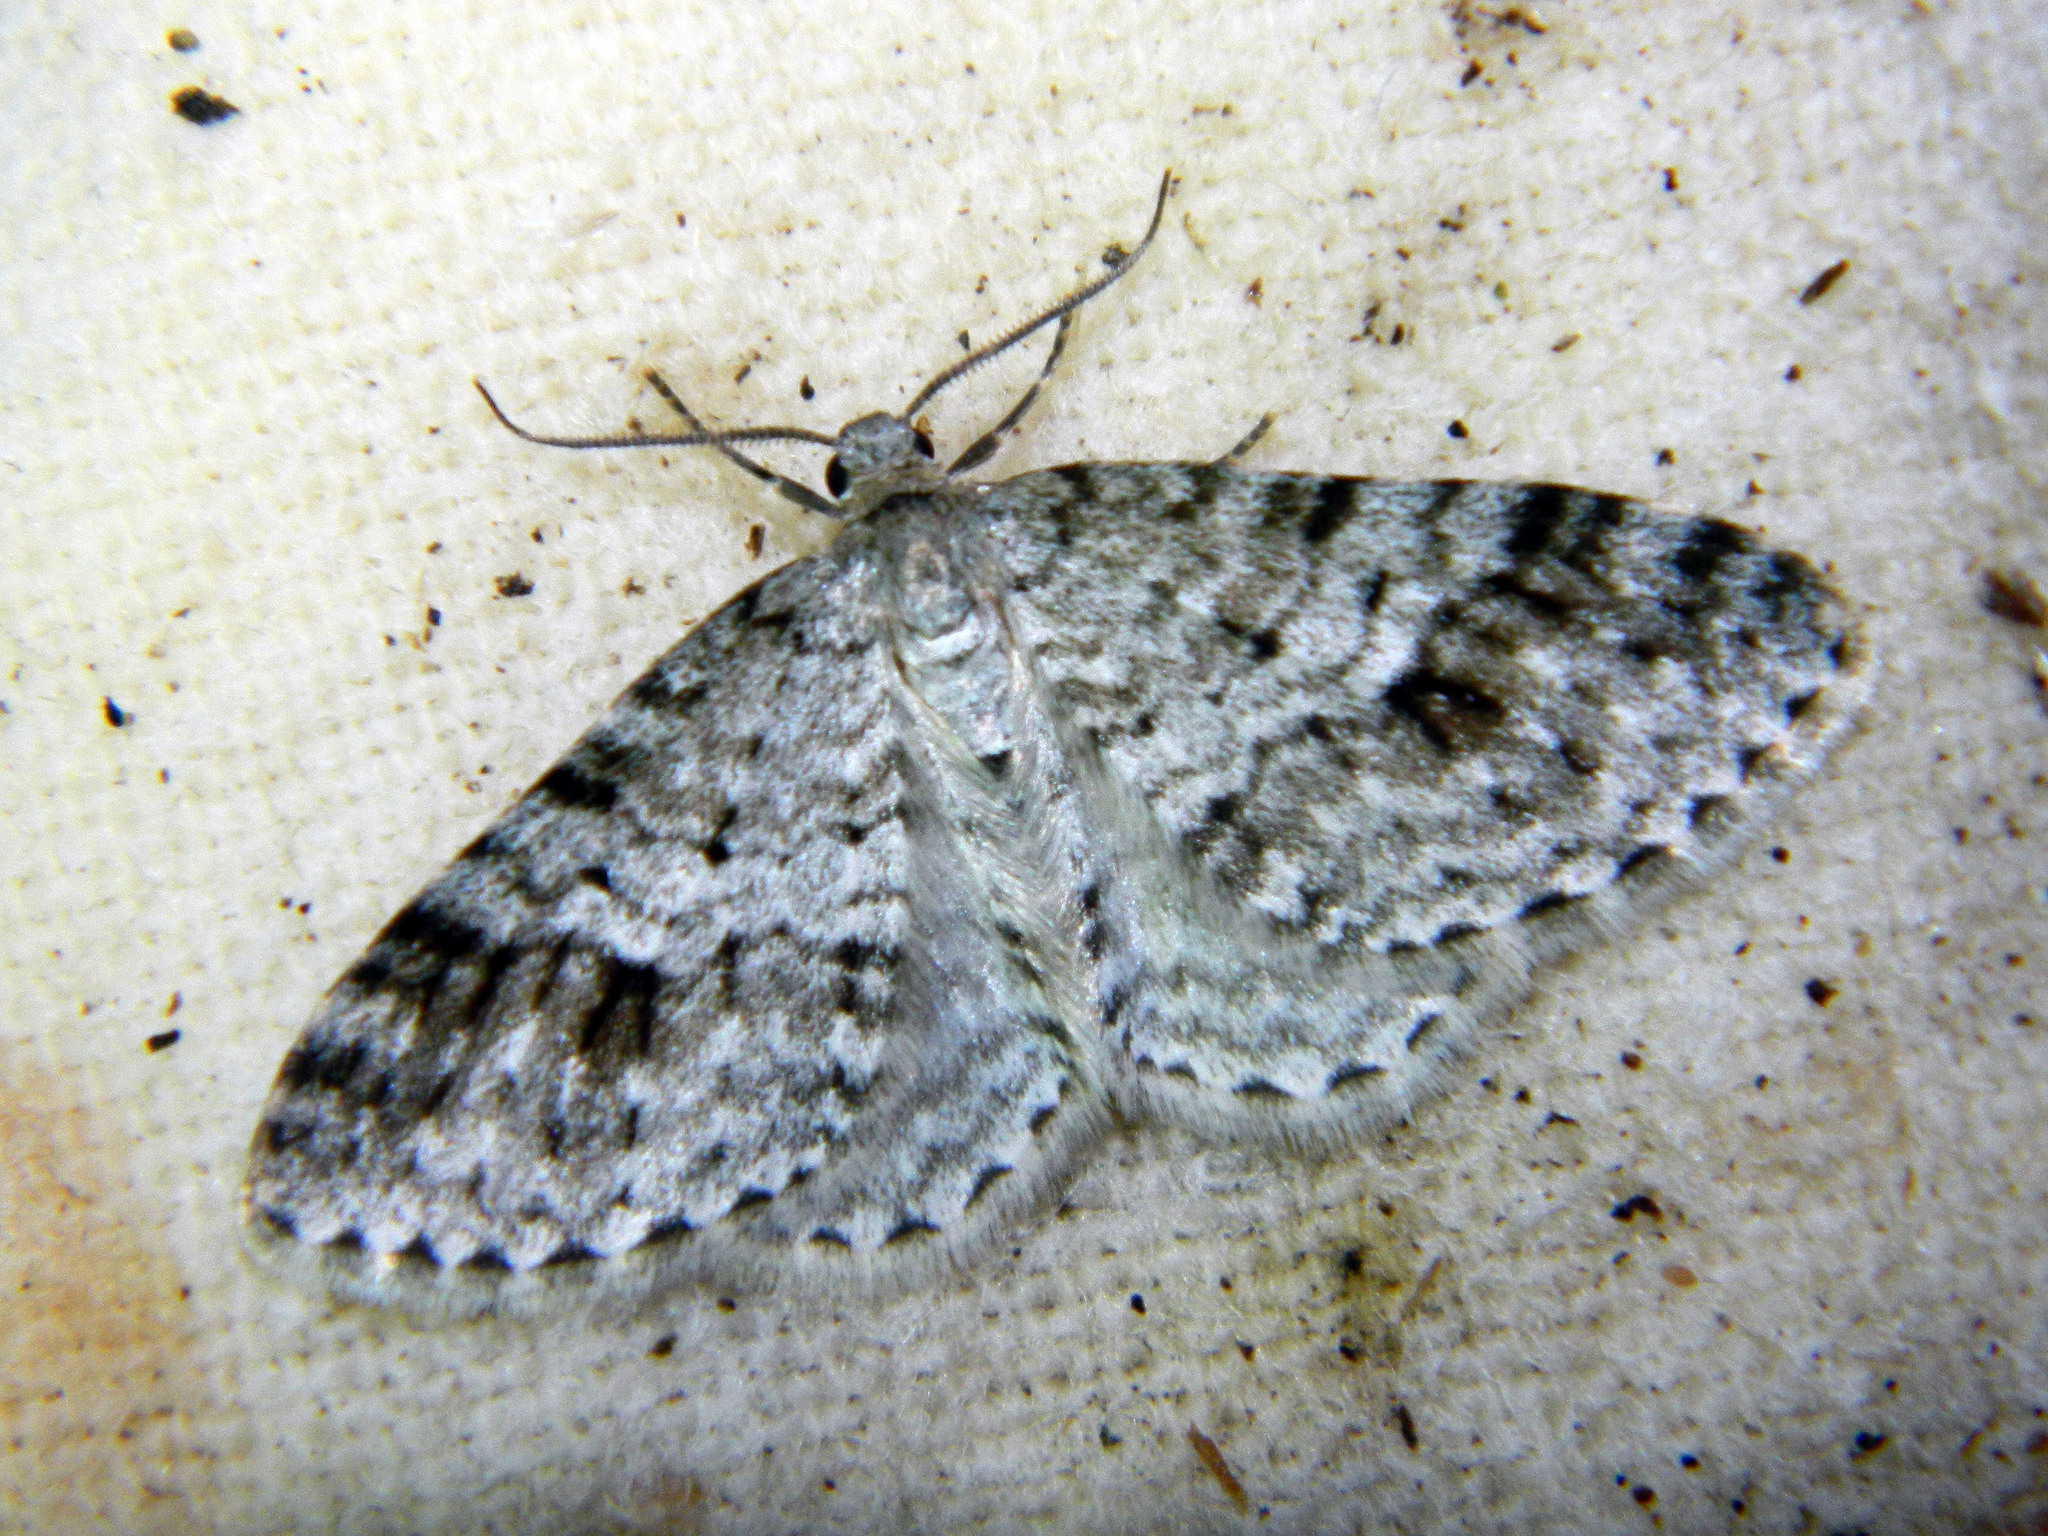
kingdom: Animalia
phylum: Arthropoda
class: Insecta
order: Lepidoptera
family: Geometridae
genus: Venusia
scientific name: Venusia cambrica
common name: Welsh wave
